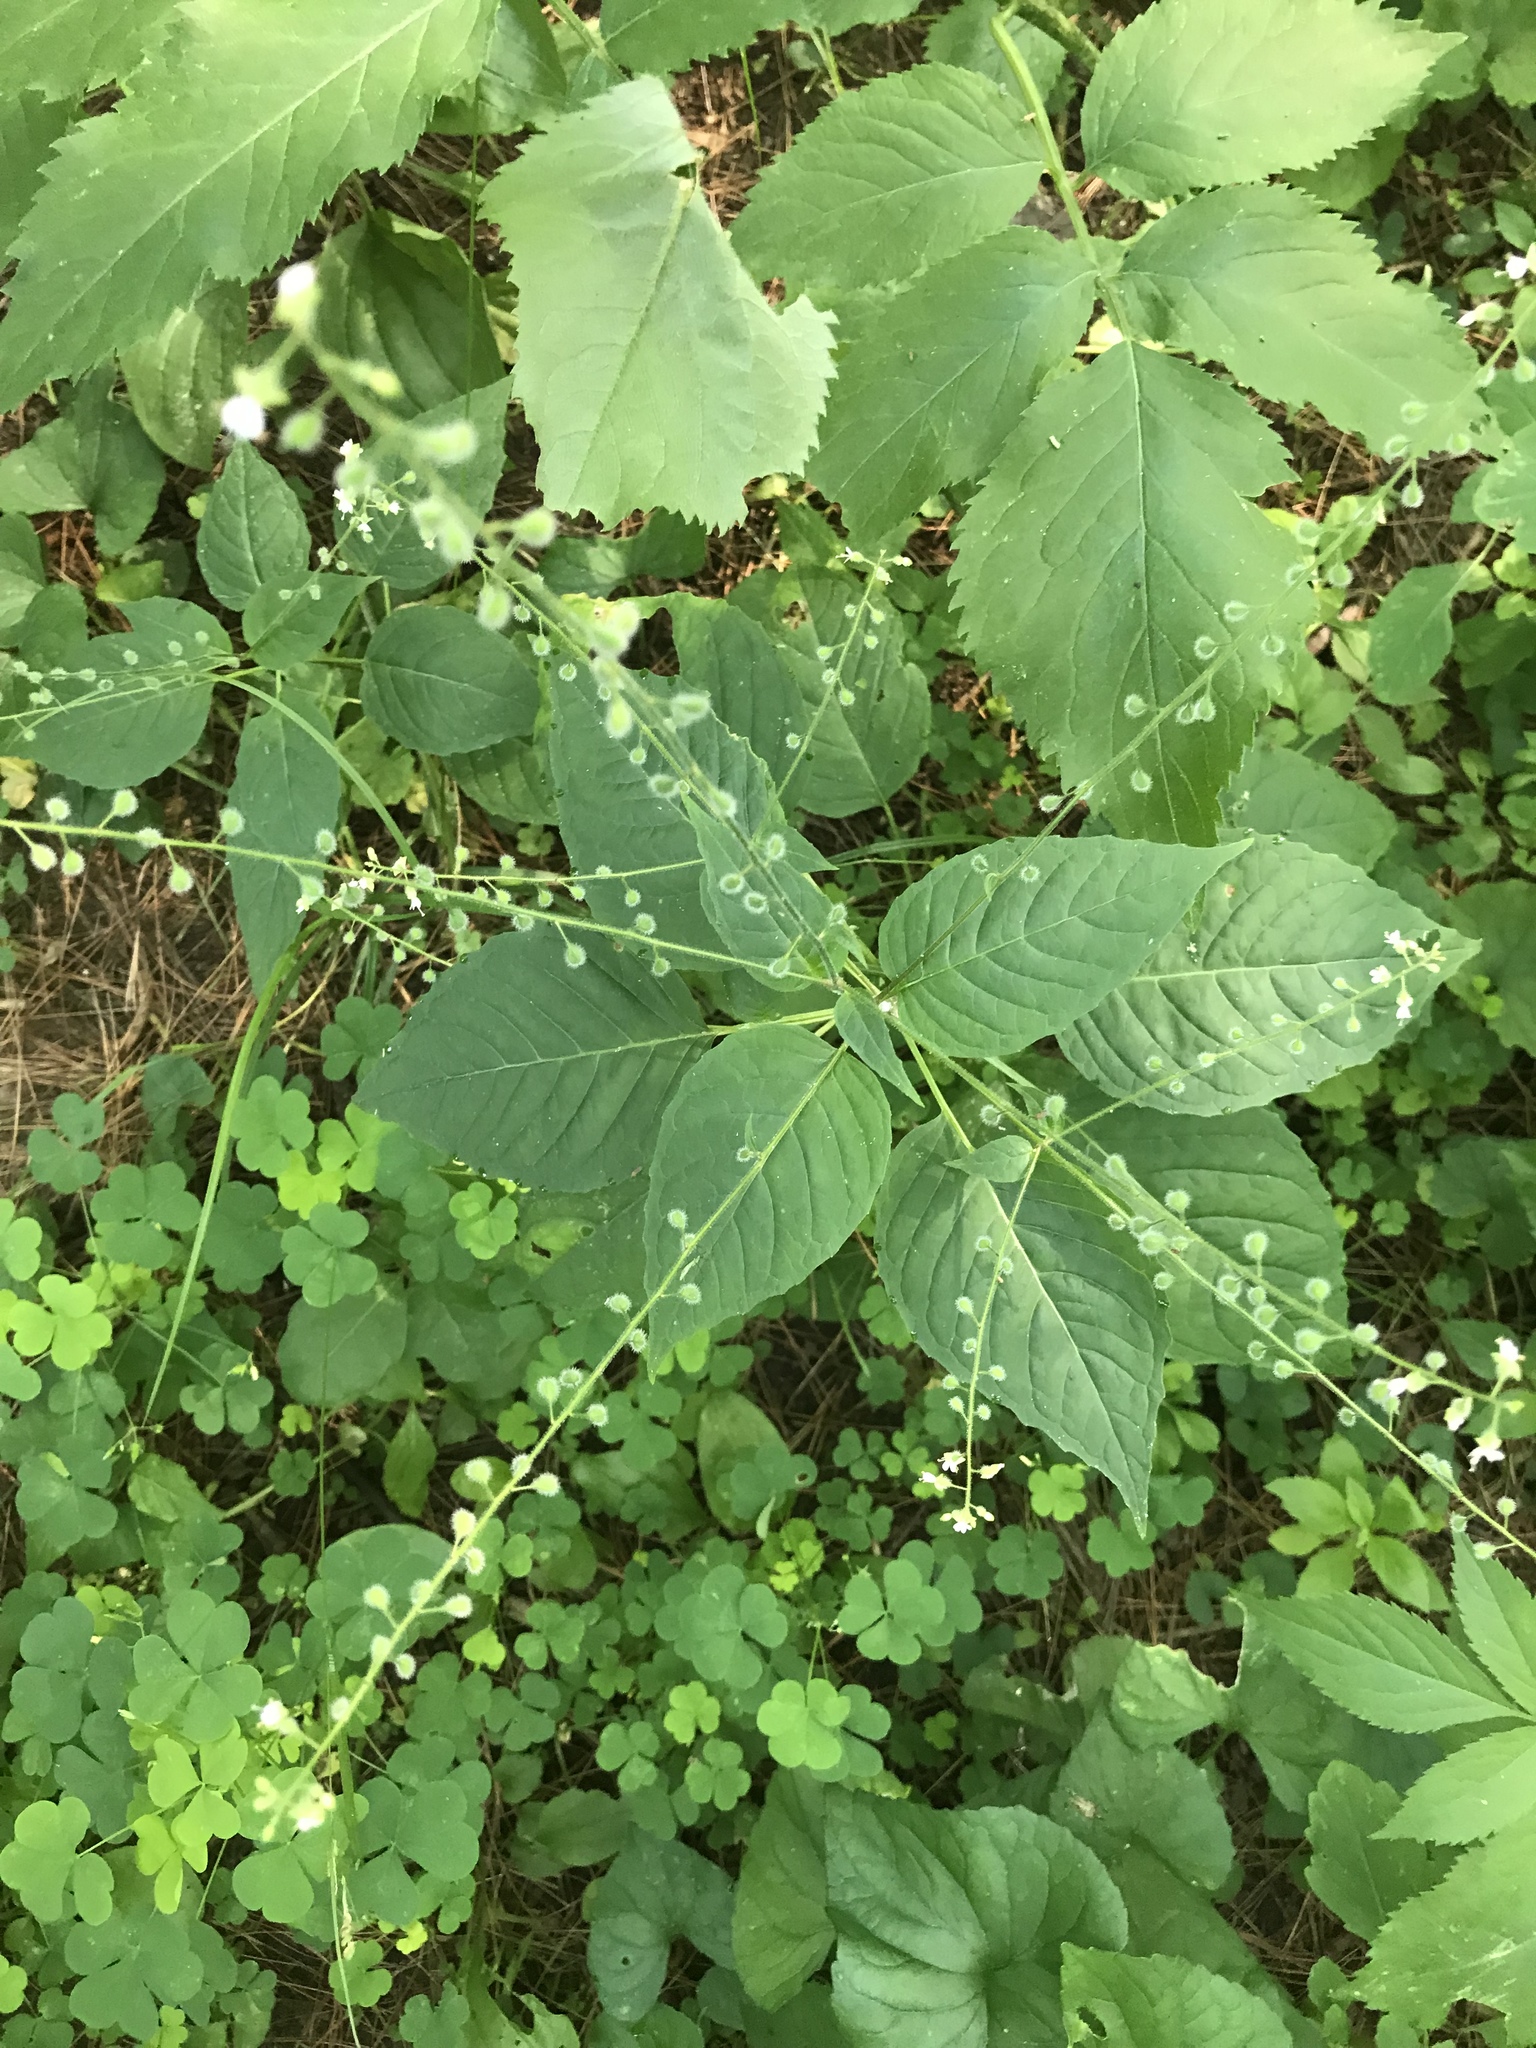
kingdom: Plantae
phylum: Tracheophyta
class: Magnoliopsida
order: Myrtales
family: Onagraceae
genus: Circaea
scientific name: Circaea canadensis
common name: Broad-leaved enchanter's nightshade
